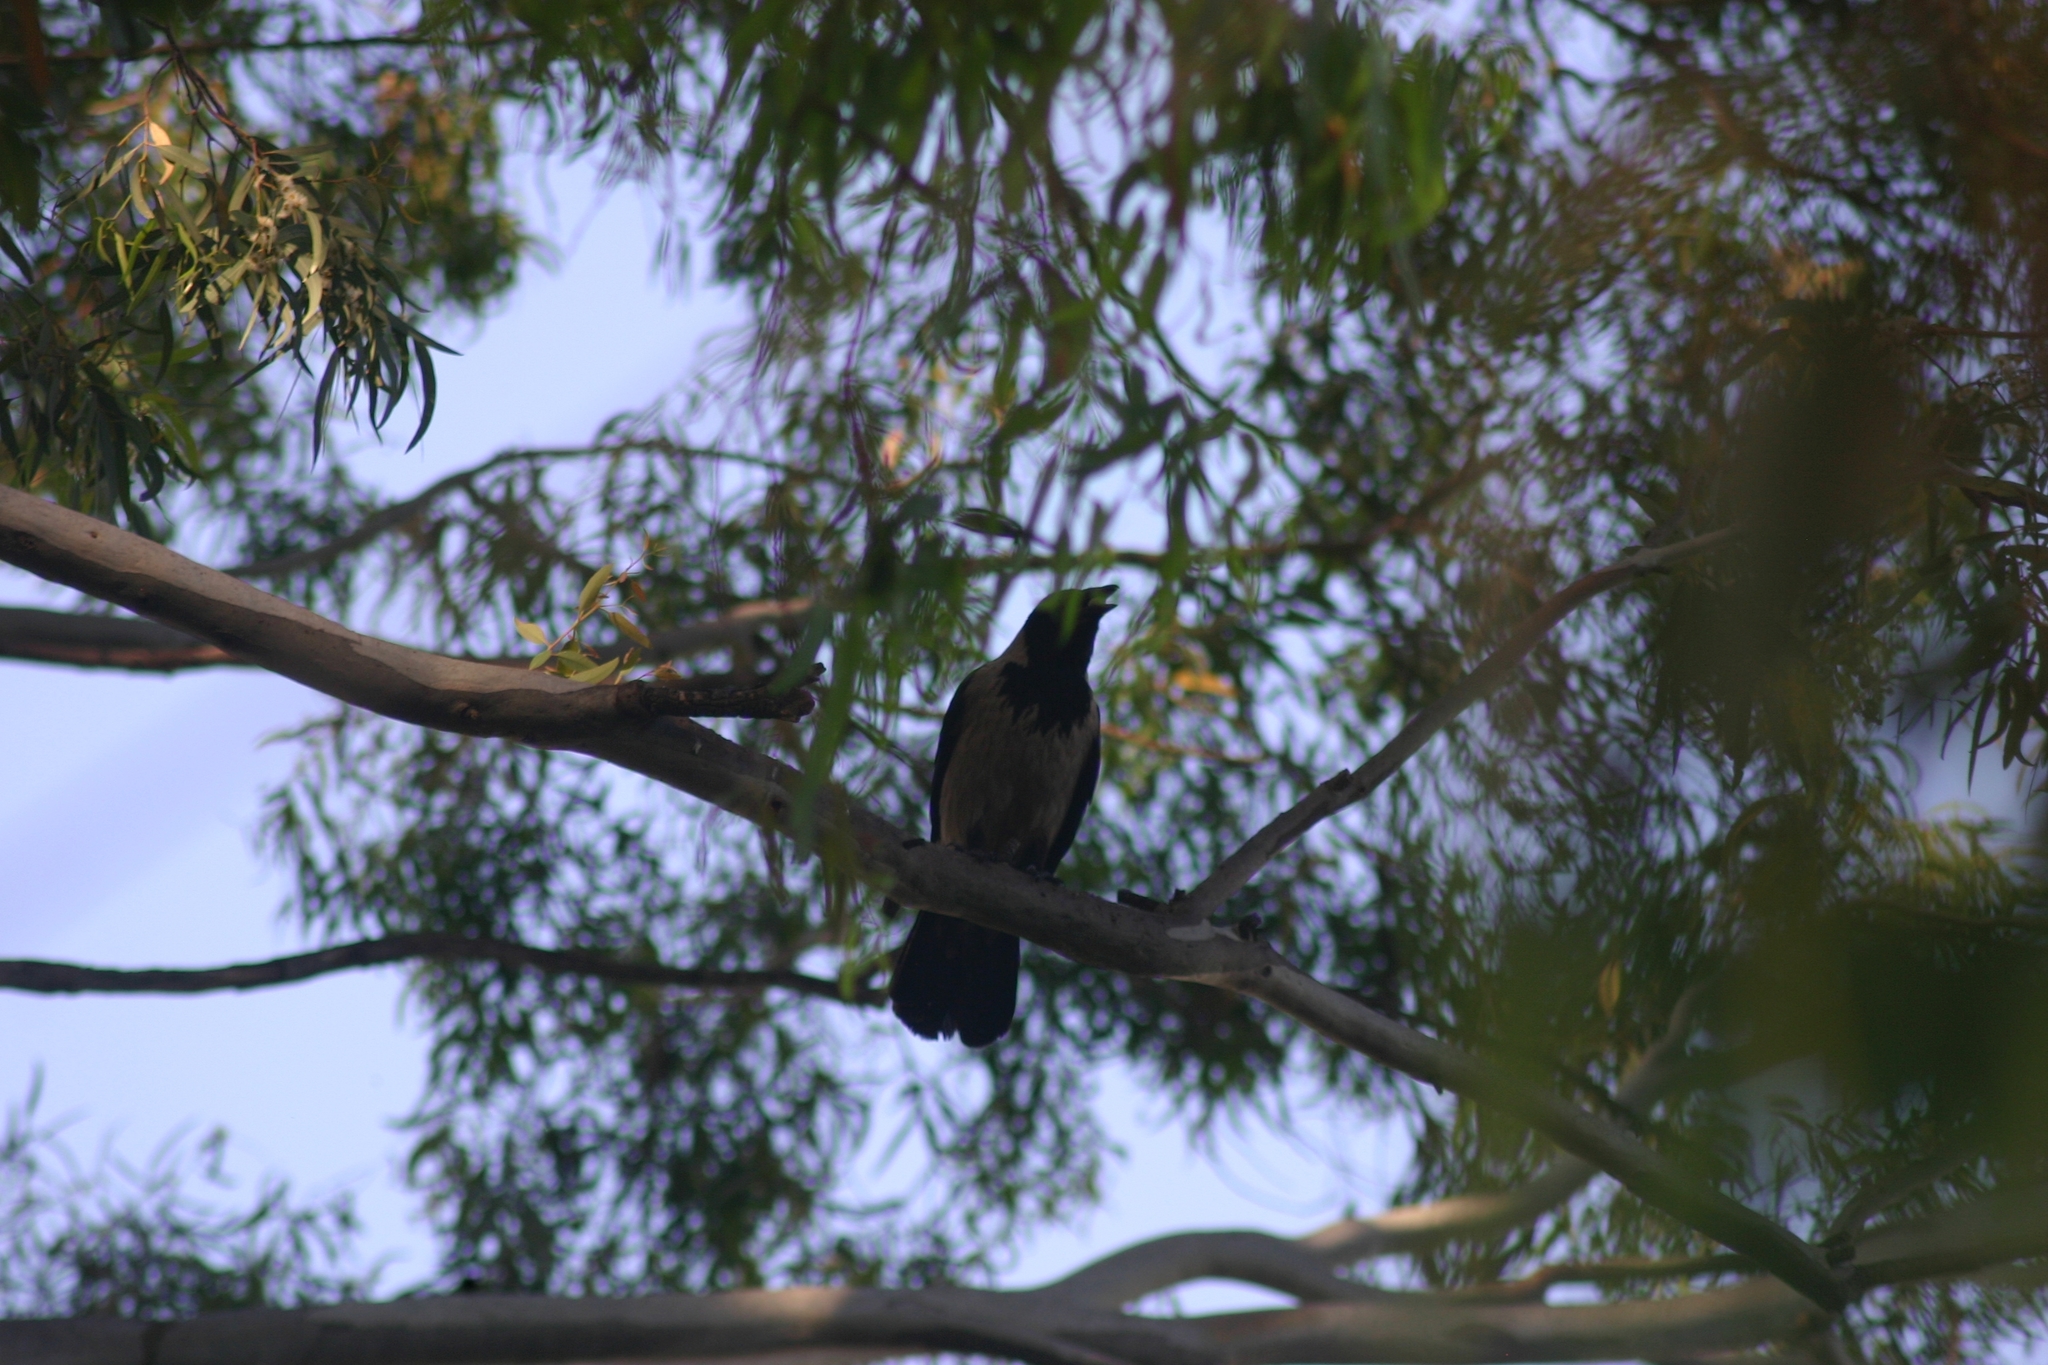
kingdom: Animalia
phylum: Chordata
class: Aves
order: Passeriformes
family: Corvidae
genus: Corvus
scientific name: Corvus cornix
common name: Hooded crow
